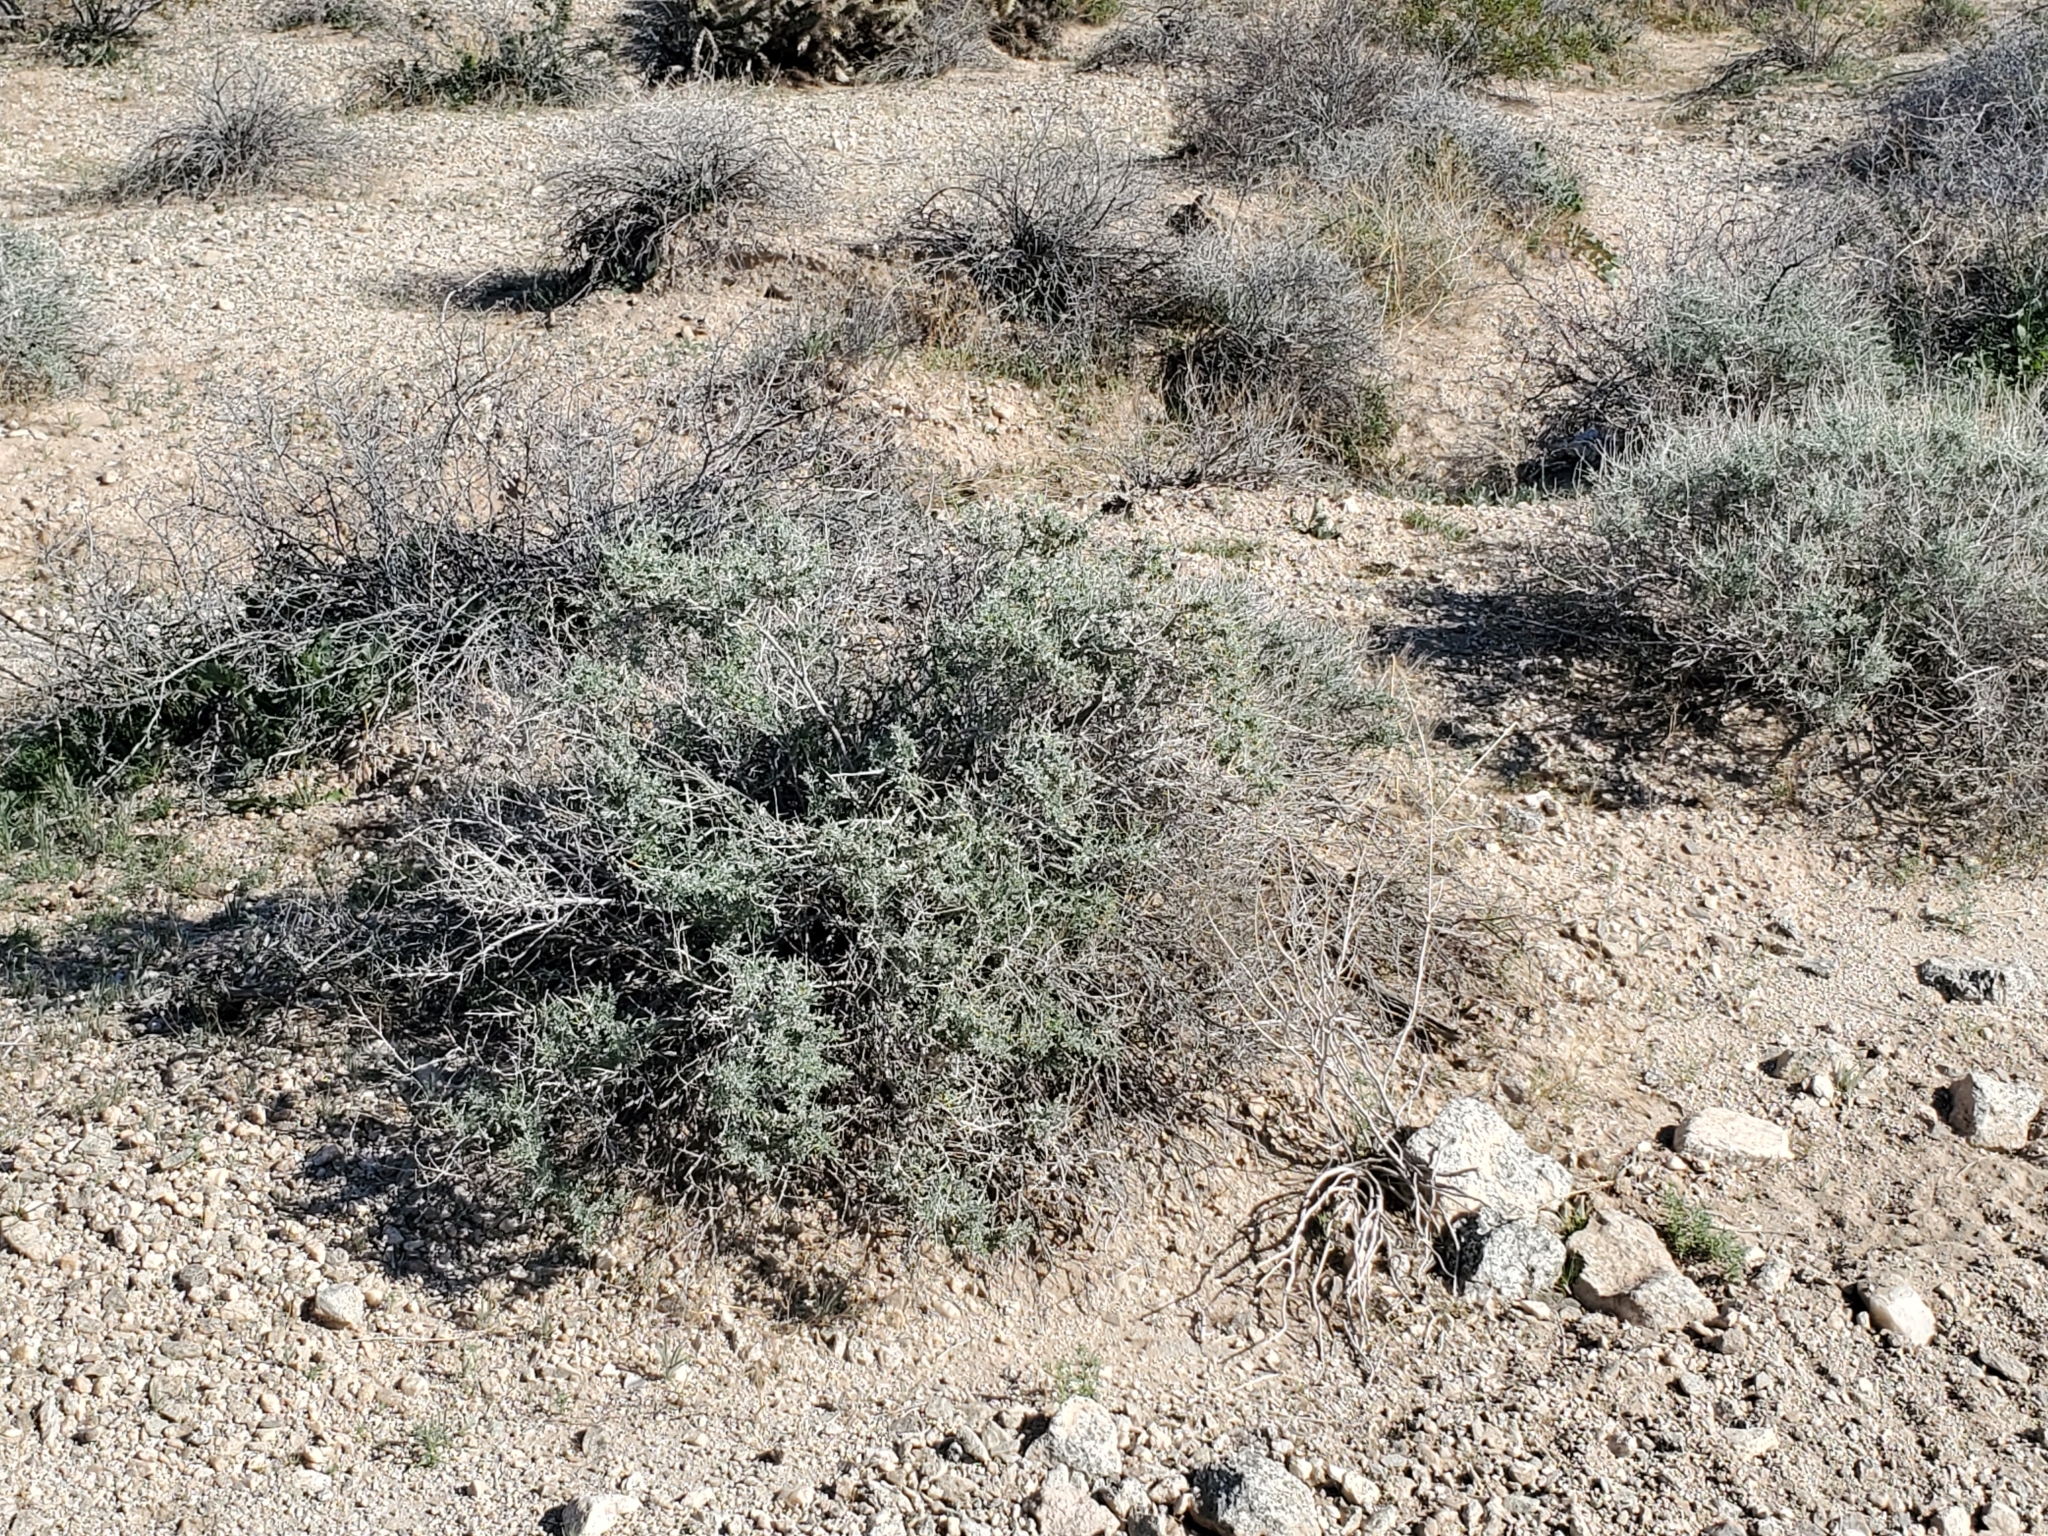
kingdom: Plantae
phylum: Tracheophyta
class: Magnoliopsida
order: Asterales
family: Asteraceae
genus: Ambrosia
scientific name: Ambrosia dumosa
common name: Bur-sage
